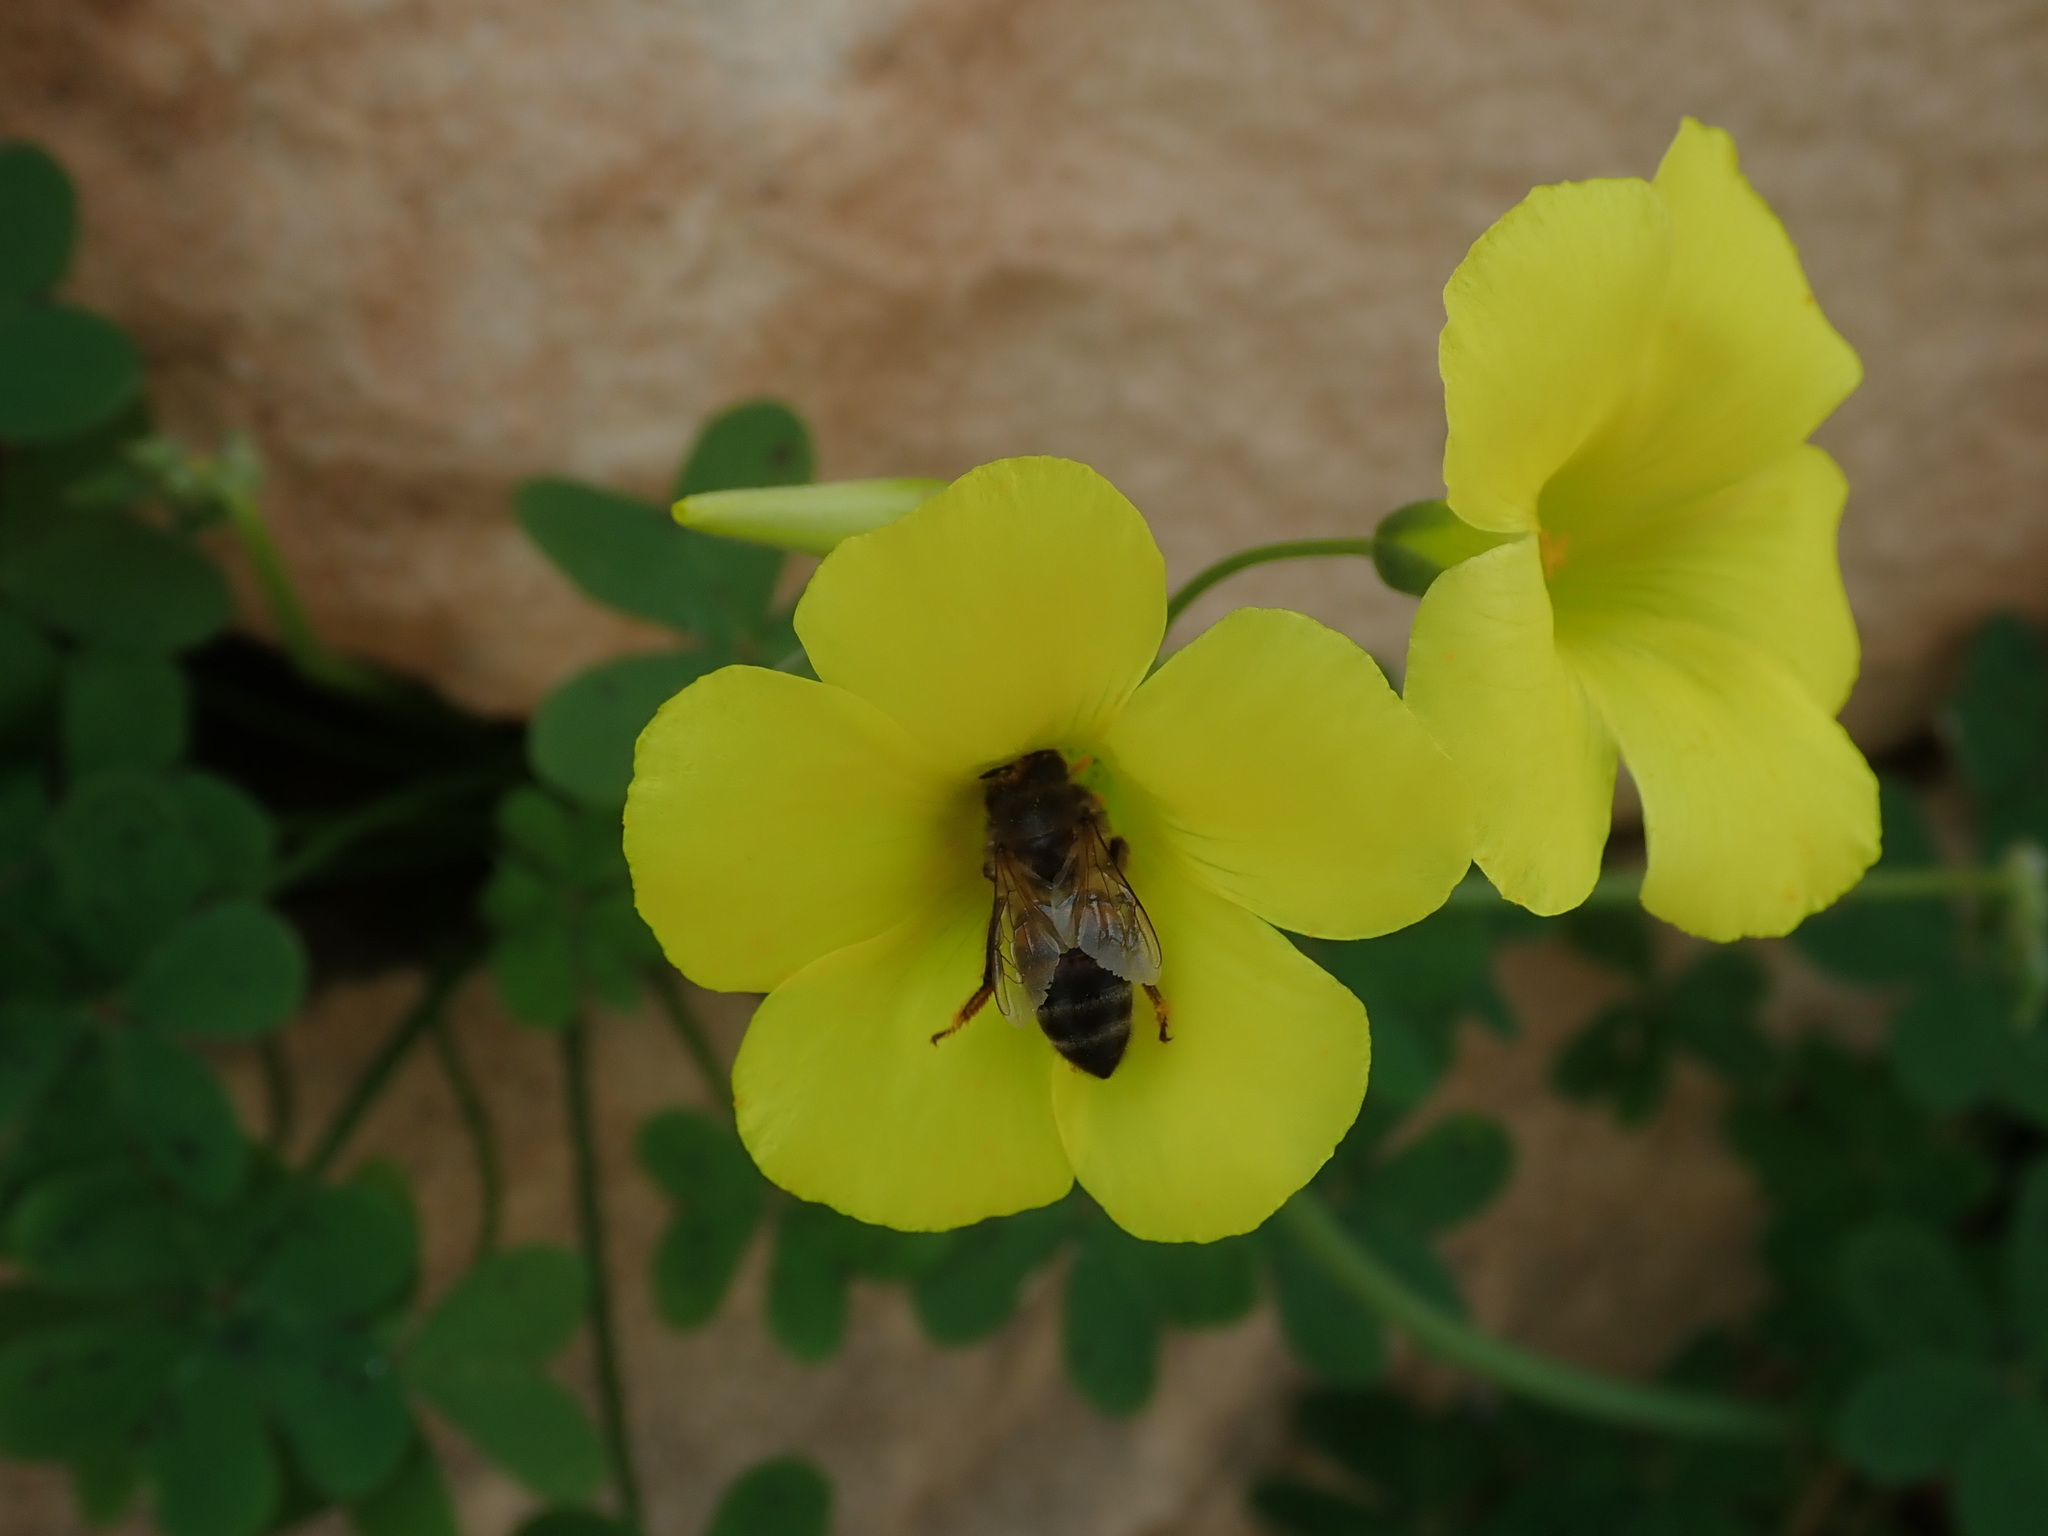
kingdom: Animalia
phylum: Arthropoda
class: Insecta
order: Hymenoptera
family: Apidae
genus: Apis
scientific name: Apis mellifera
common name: Honey bee
